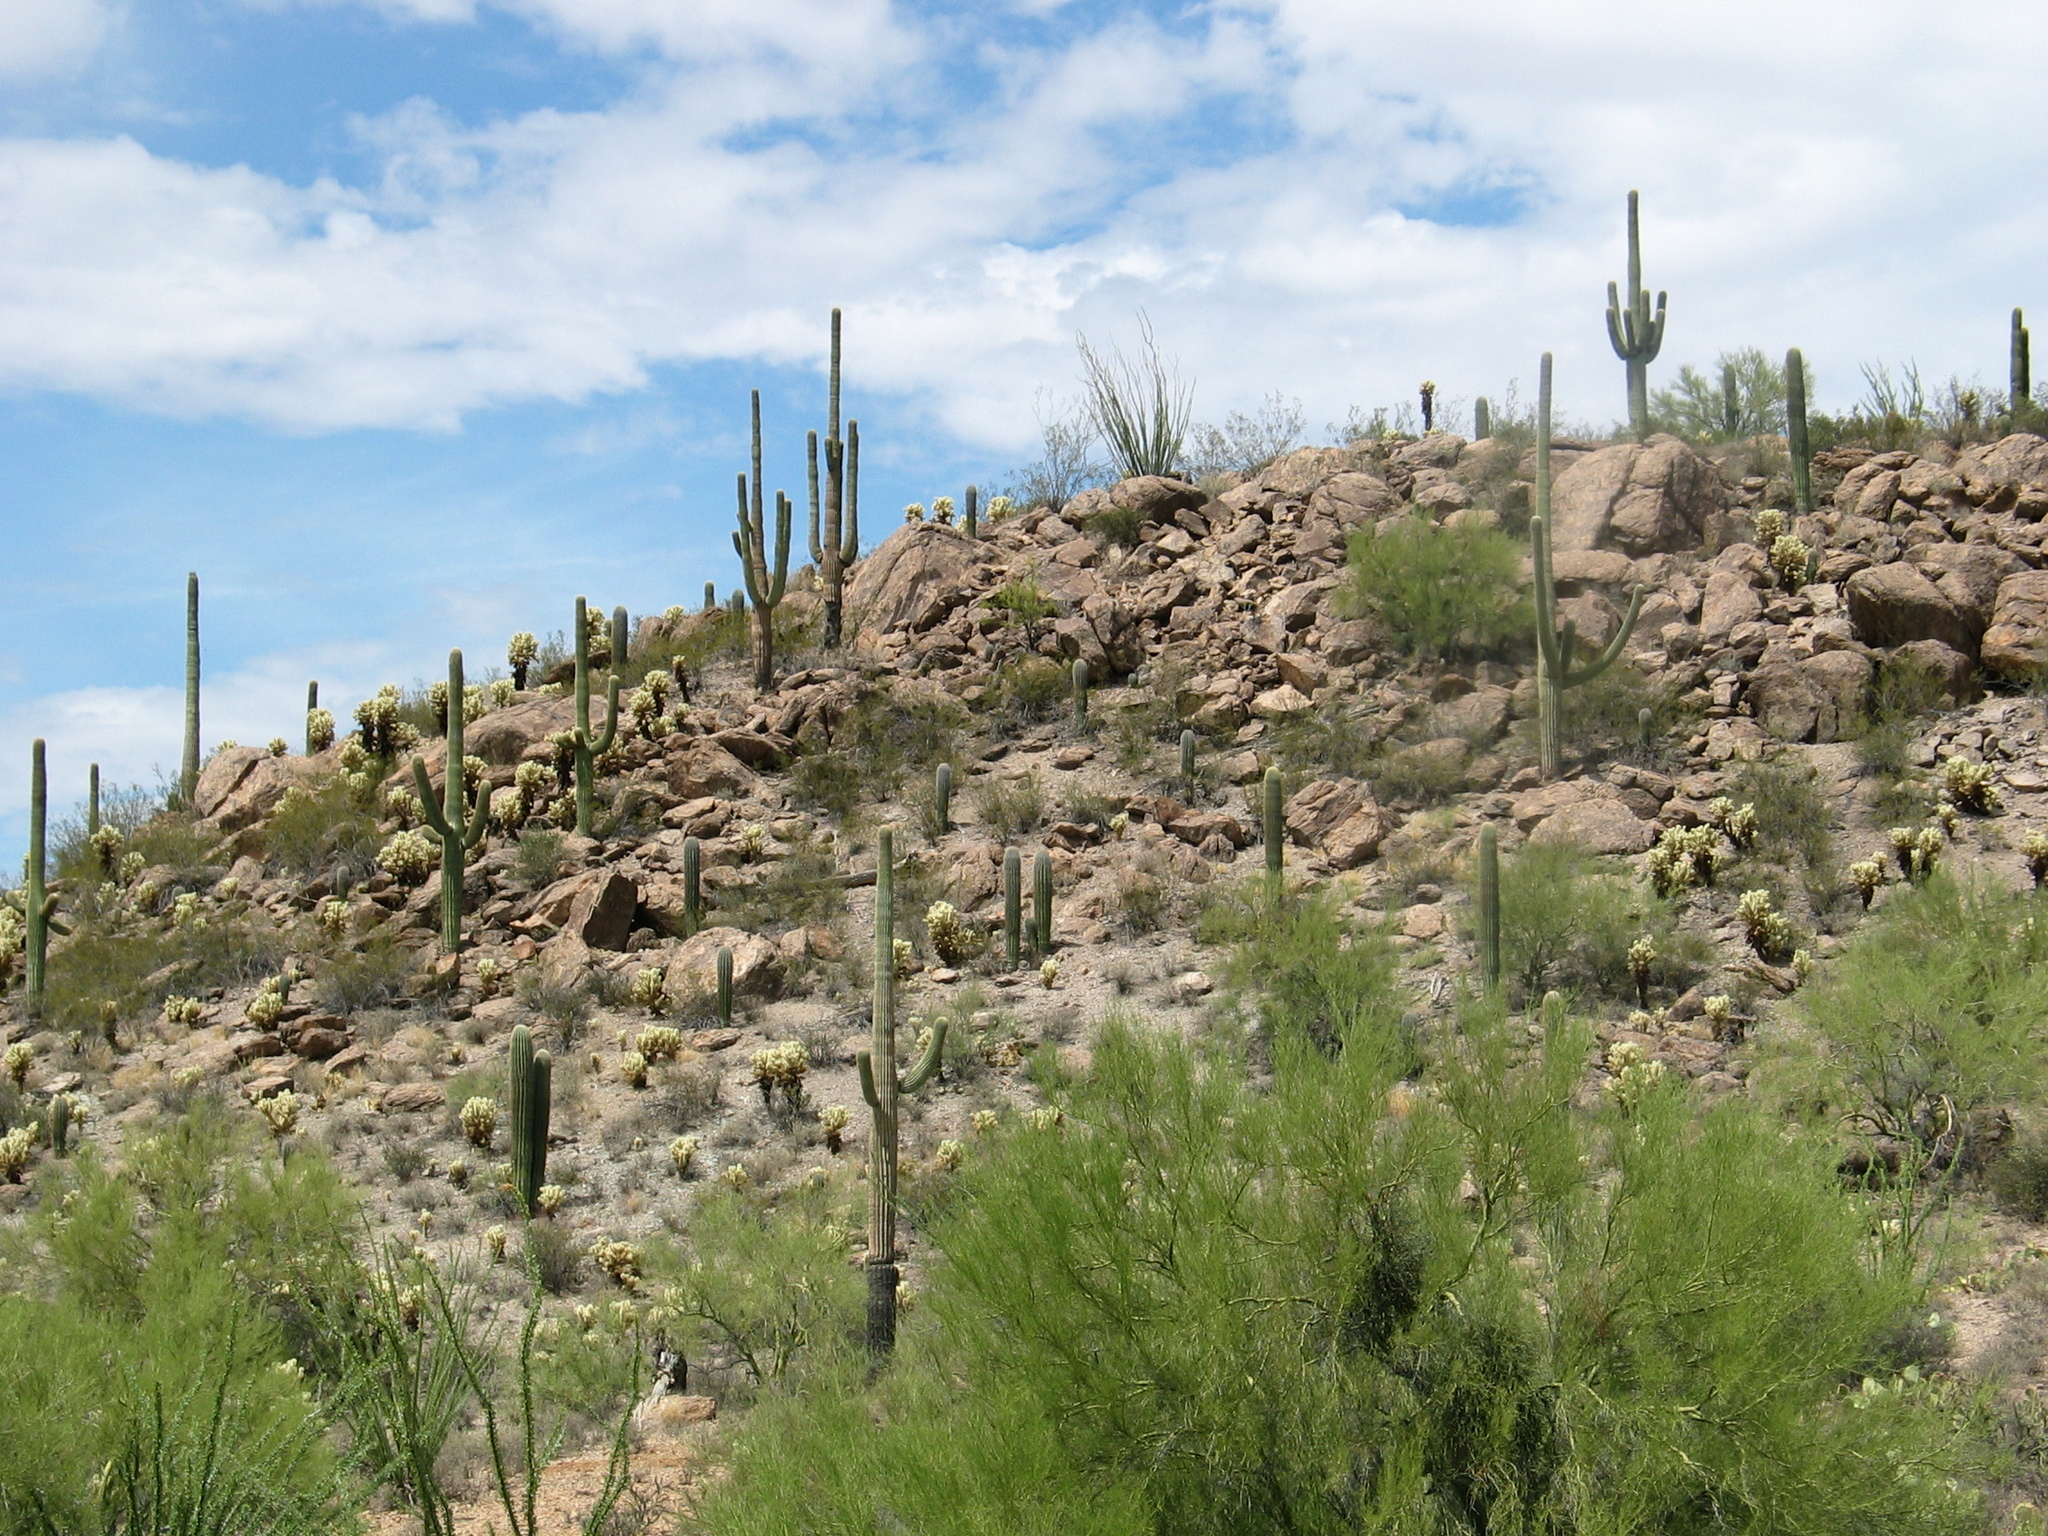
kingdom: Plantae
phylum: Tracheophyta
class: Magnoliopsida
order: Caryophyllales
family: Cactaceae
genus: Carnegiea
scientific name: Carnegiea gigantea
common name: Saguaro
